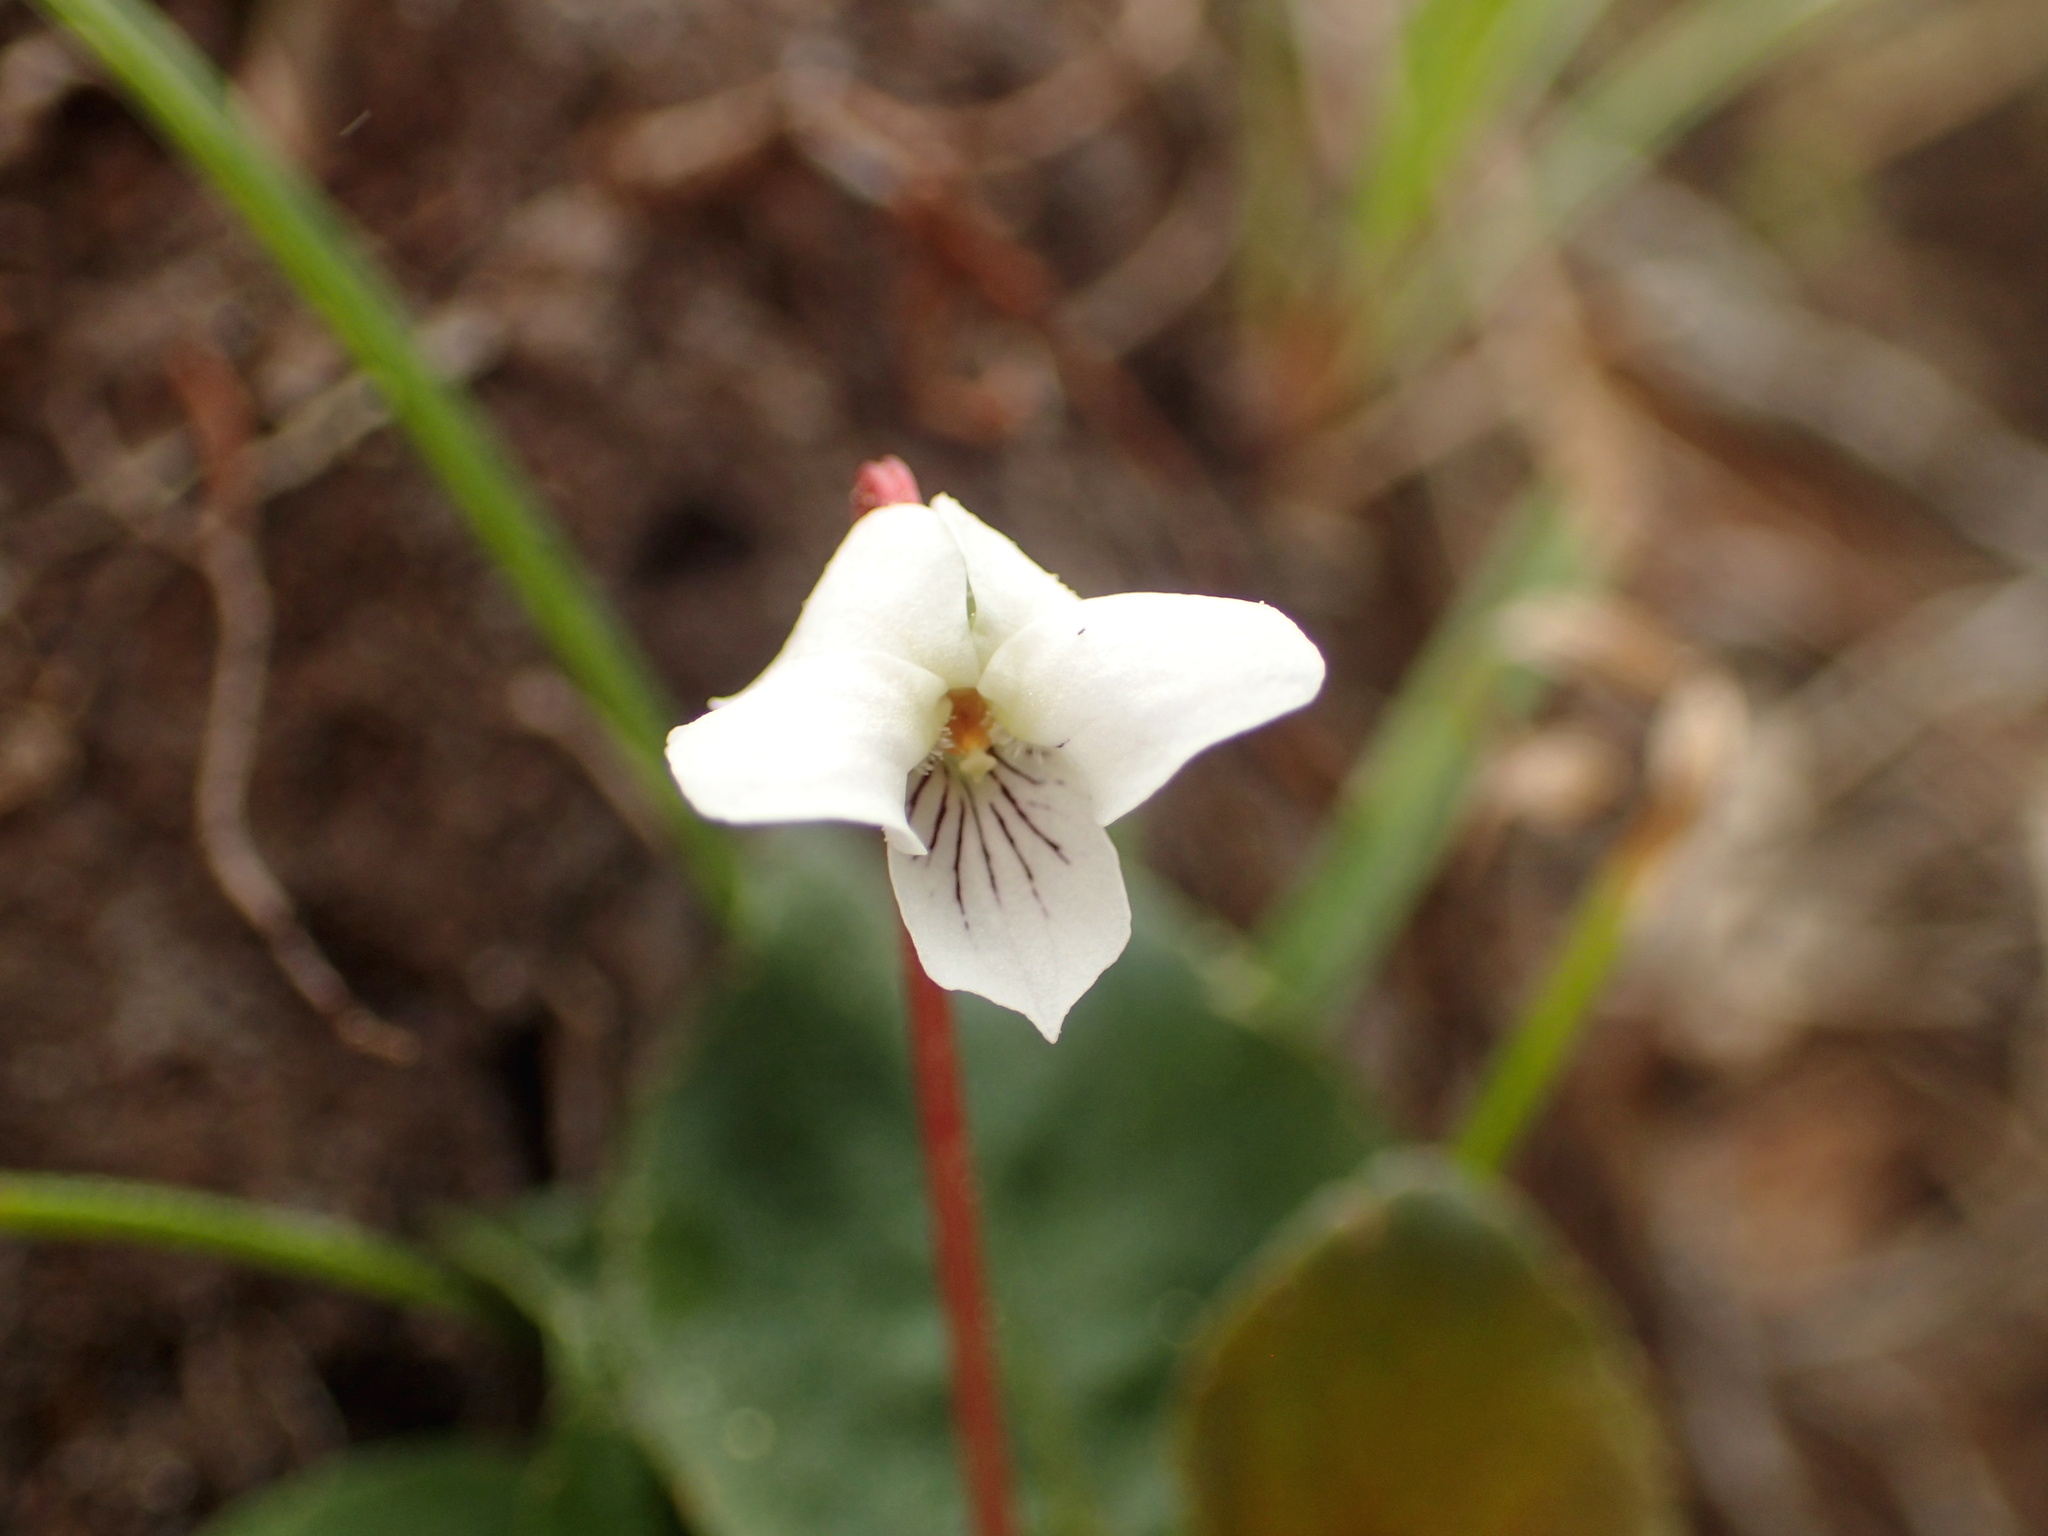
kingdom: Plantae
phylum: Tracheophyta
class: Magnoliopsida
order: Malpighiales
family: Violaceae
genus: Viola
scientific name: Viola primulifolia
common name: Primrose-leaf violet
